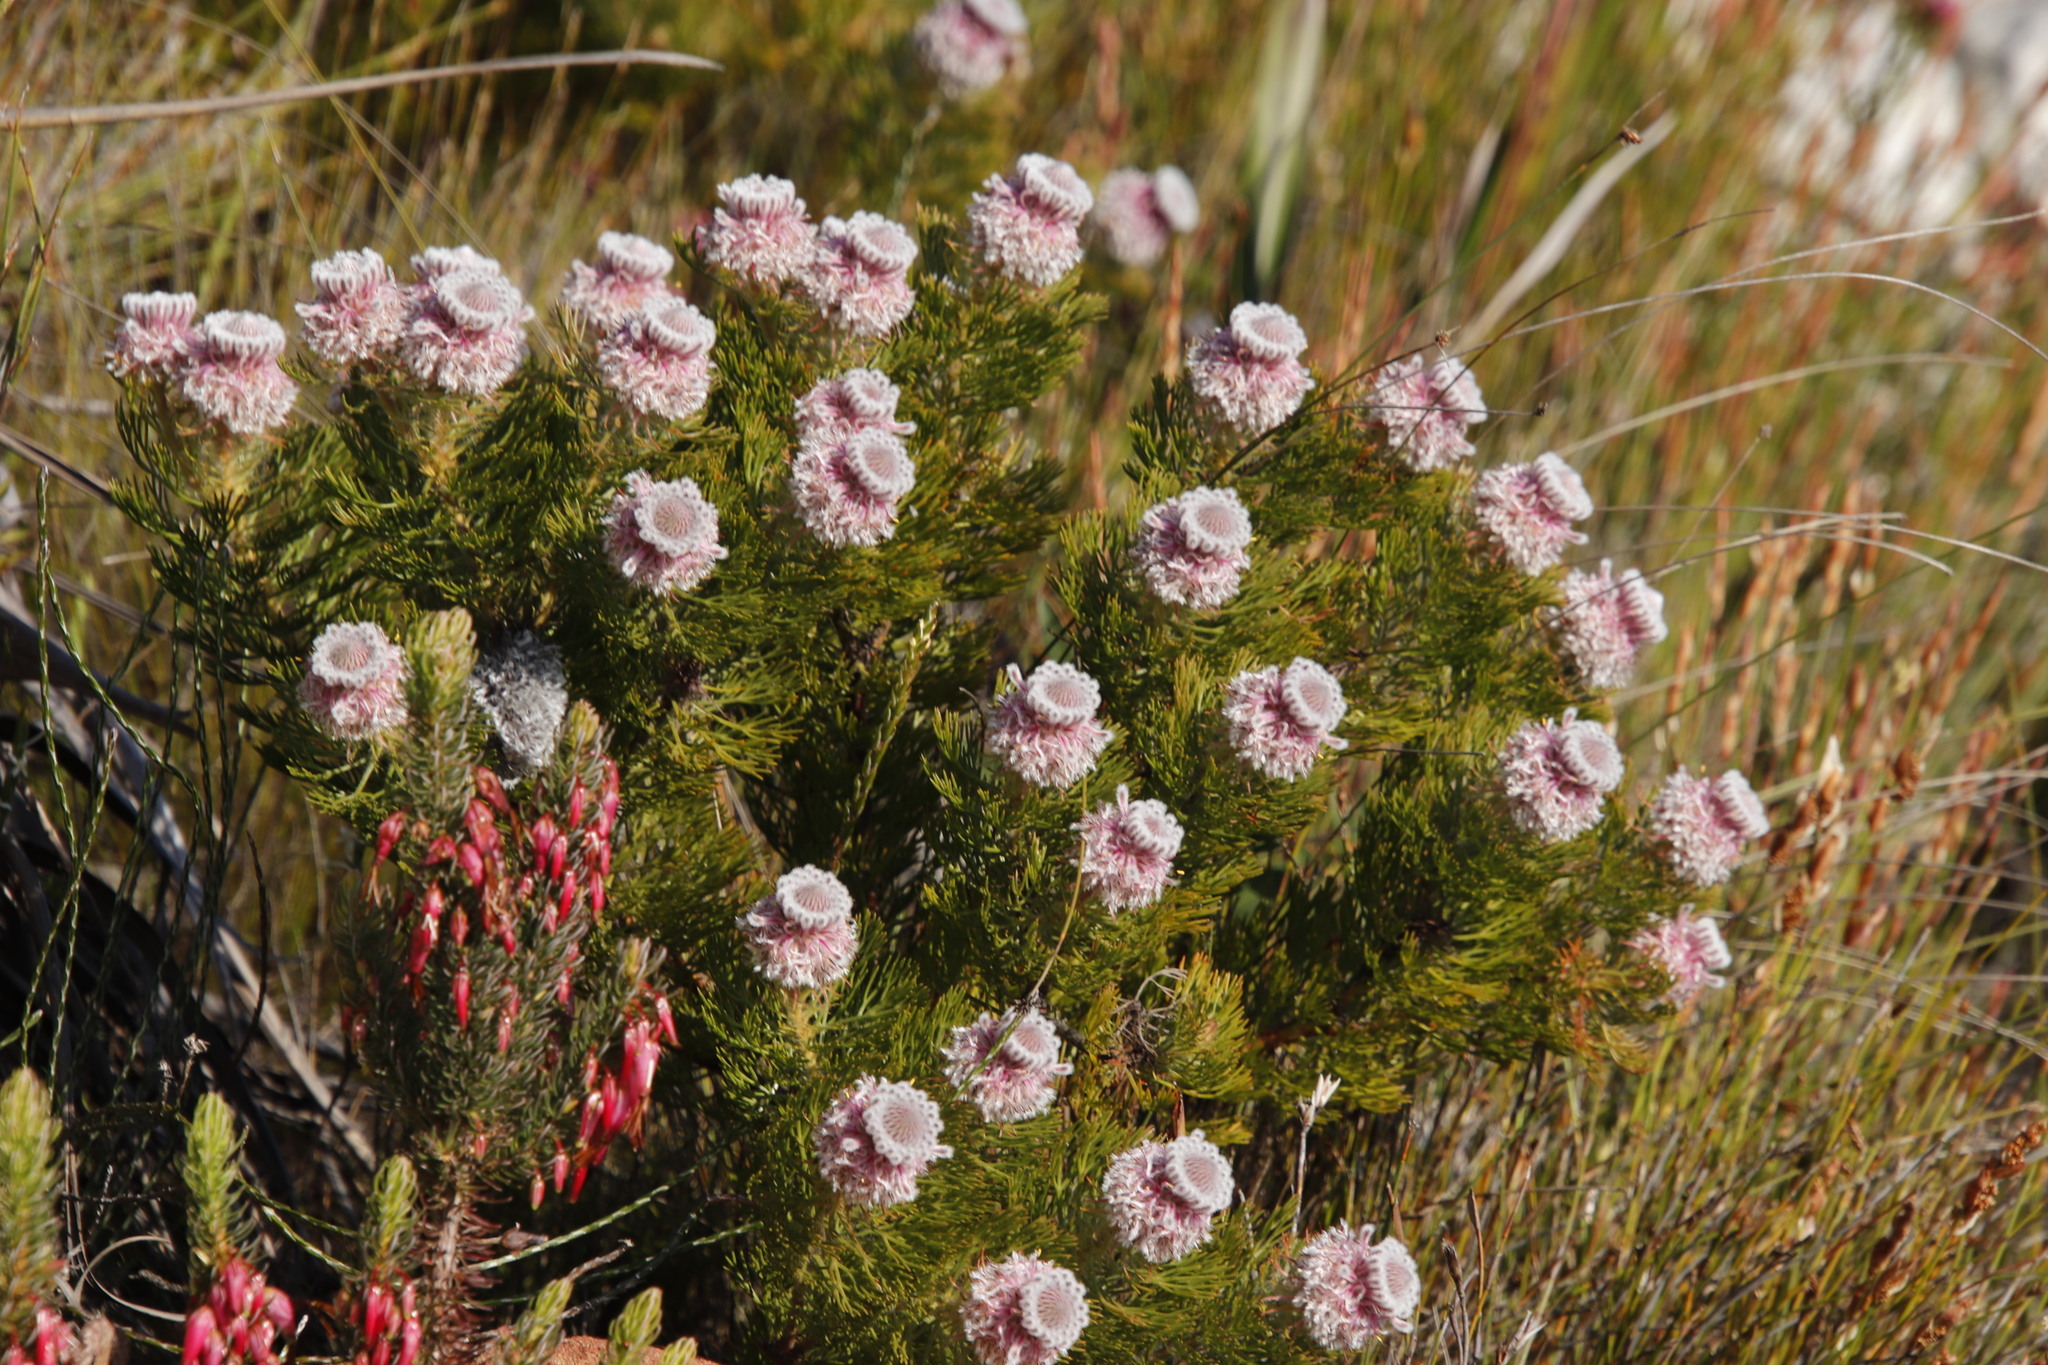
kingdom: Plantae
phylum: Tracheophyta
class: Magnoliopsida
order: Proteales
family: Proteaceae
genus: Serruria
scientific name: Serruria hirsuta
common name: Swartkops spiderhead
